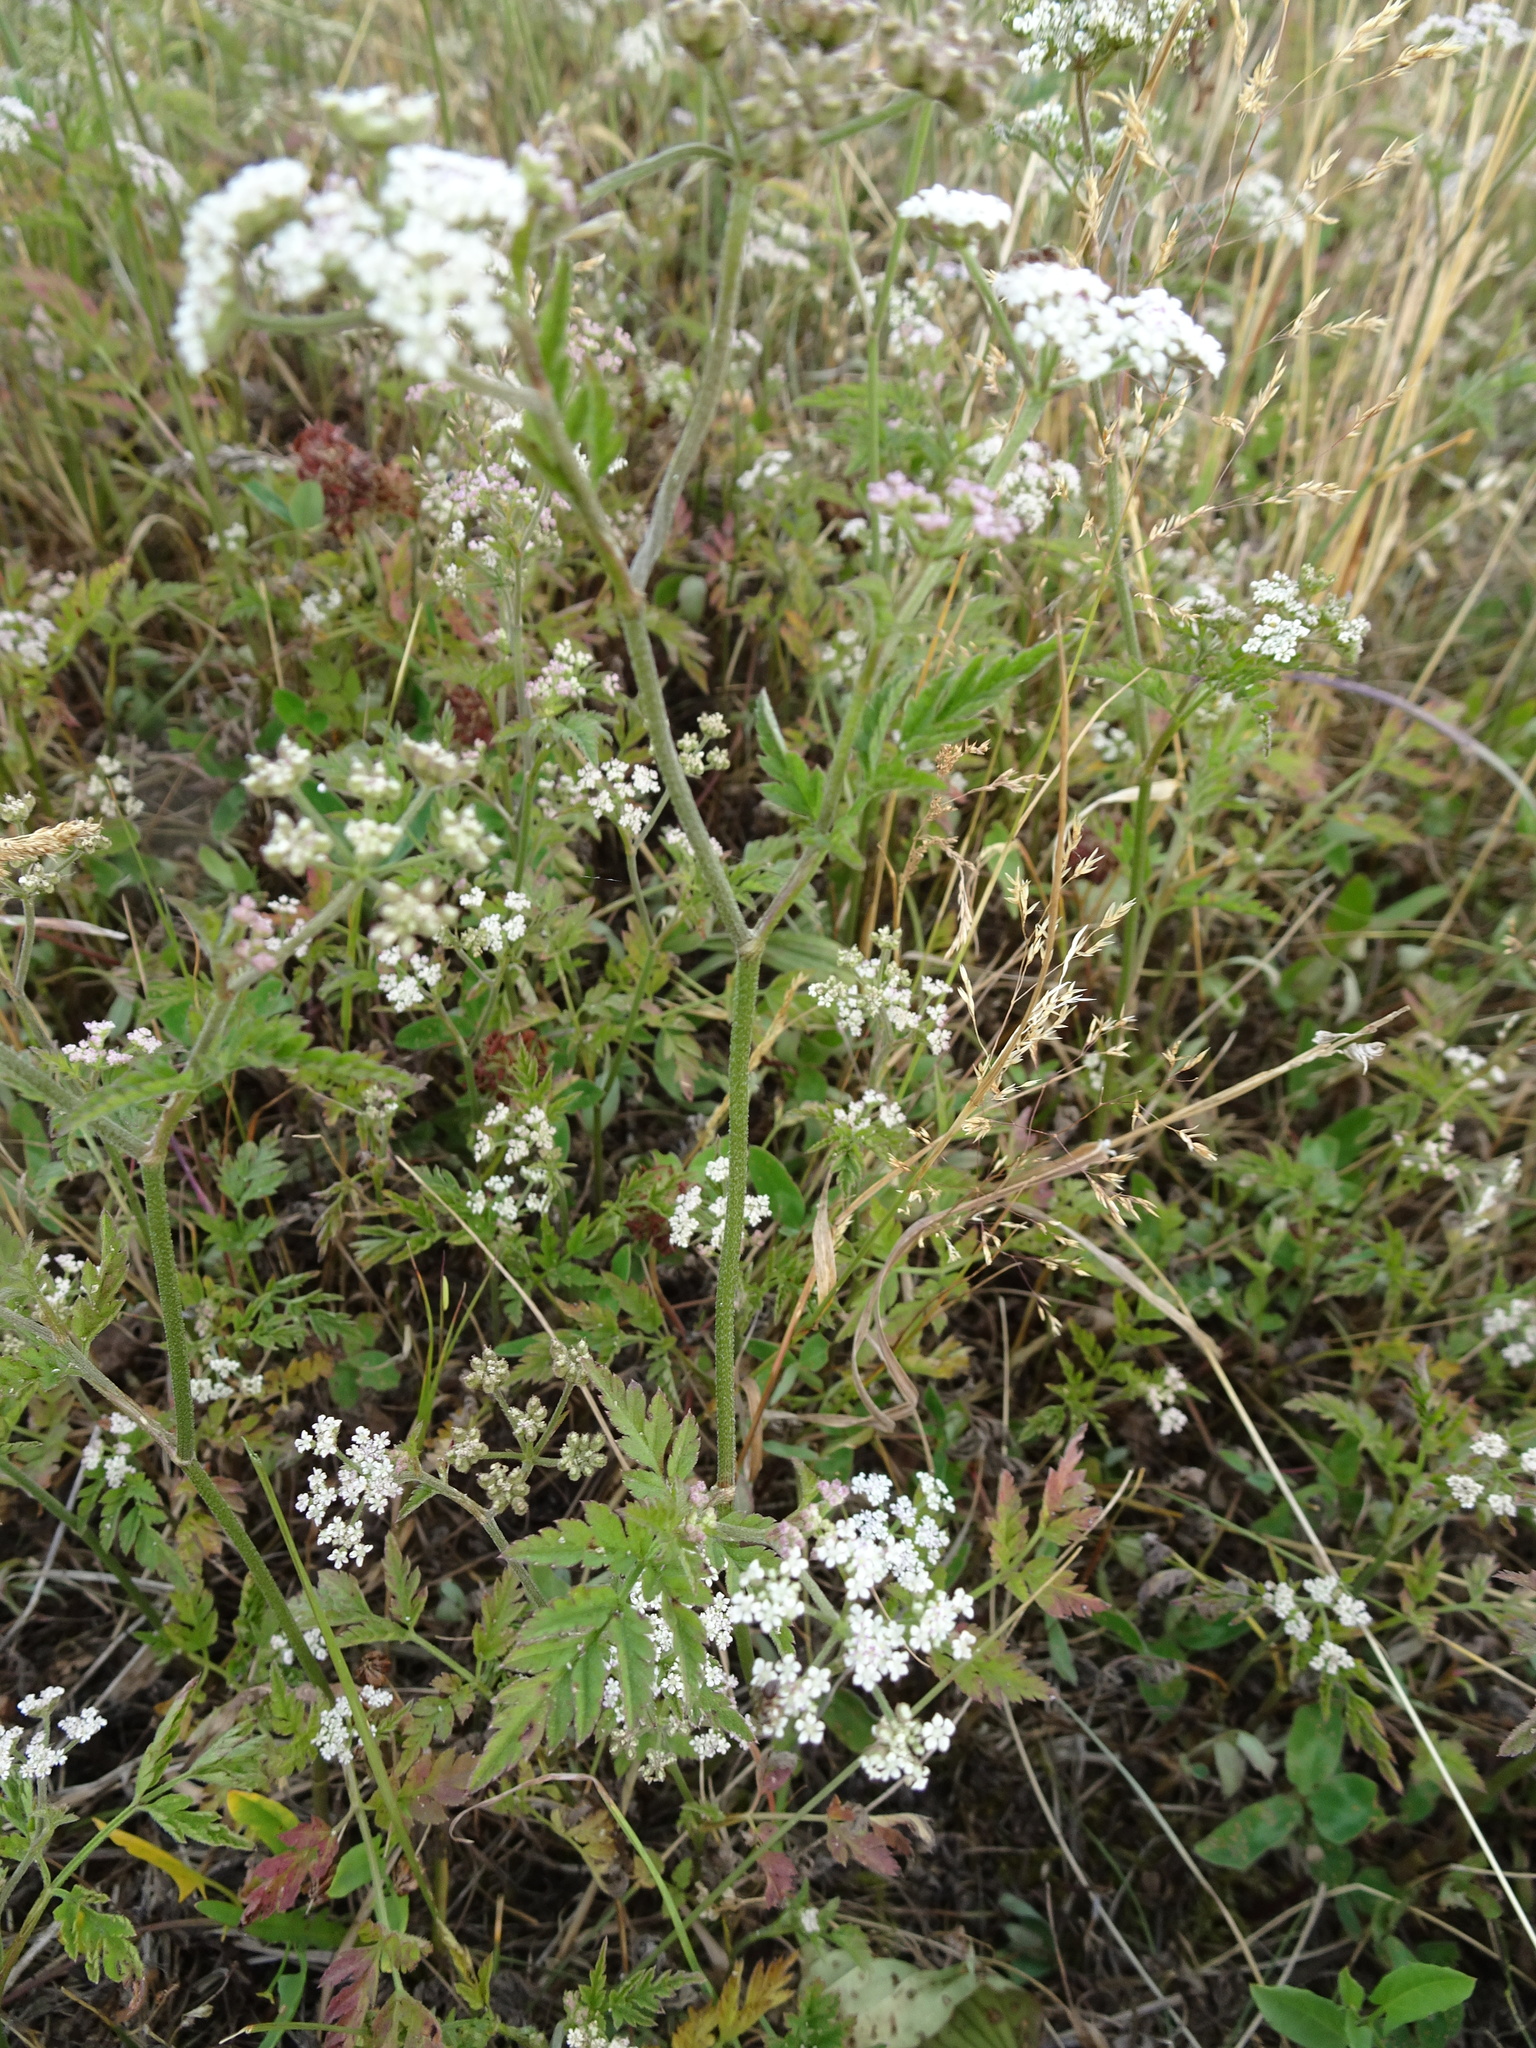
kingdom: Plantae
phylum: Tracheophyta
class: Magnoliopsida
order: Apiales
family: Apiaceae
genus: Torilis
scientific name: Torilis japonica
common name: Upright hedge-parsley
